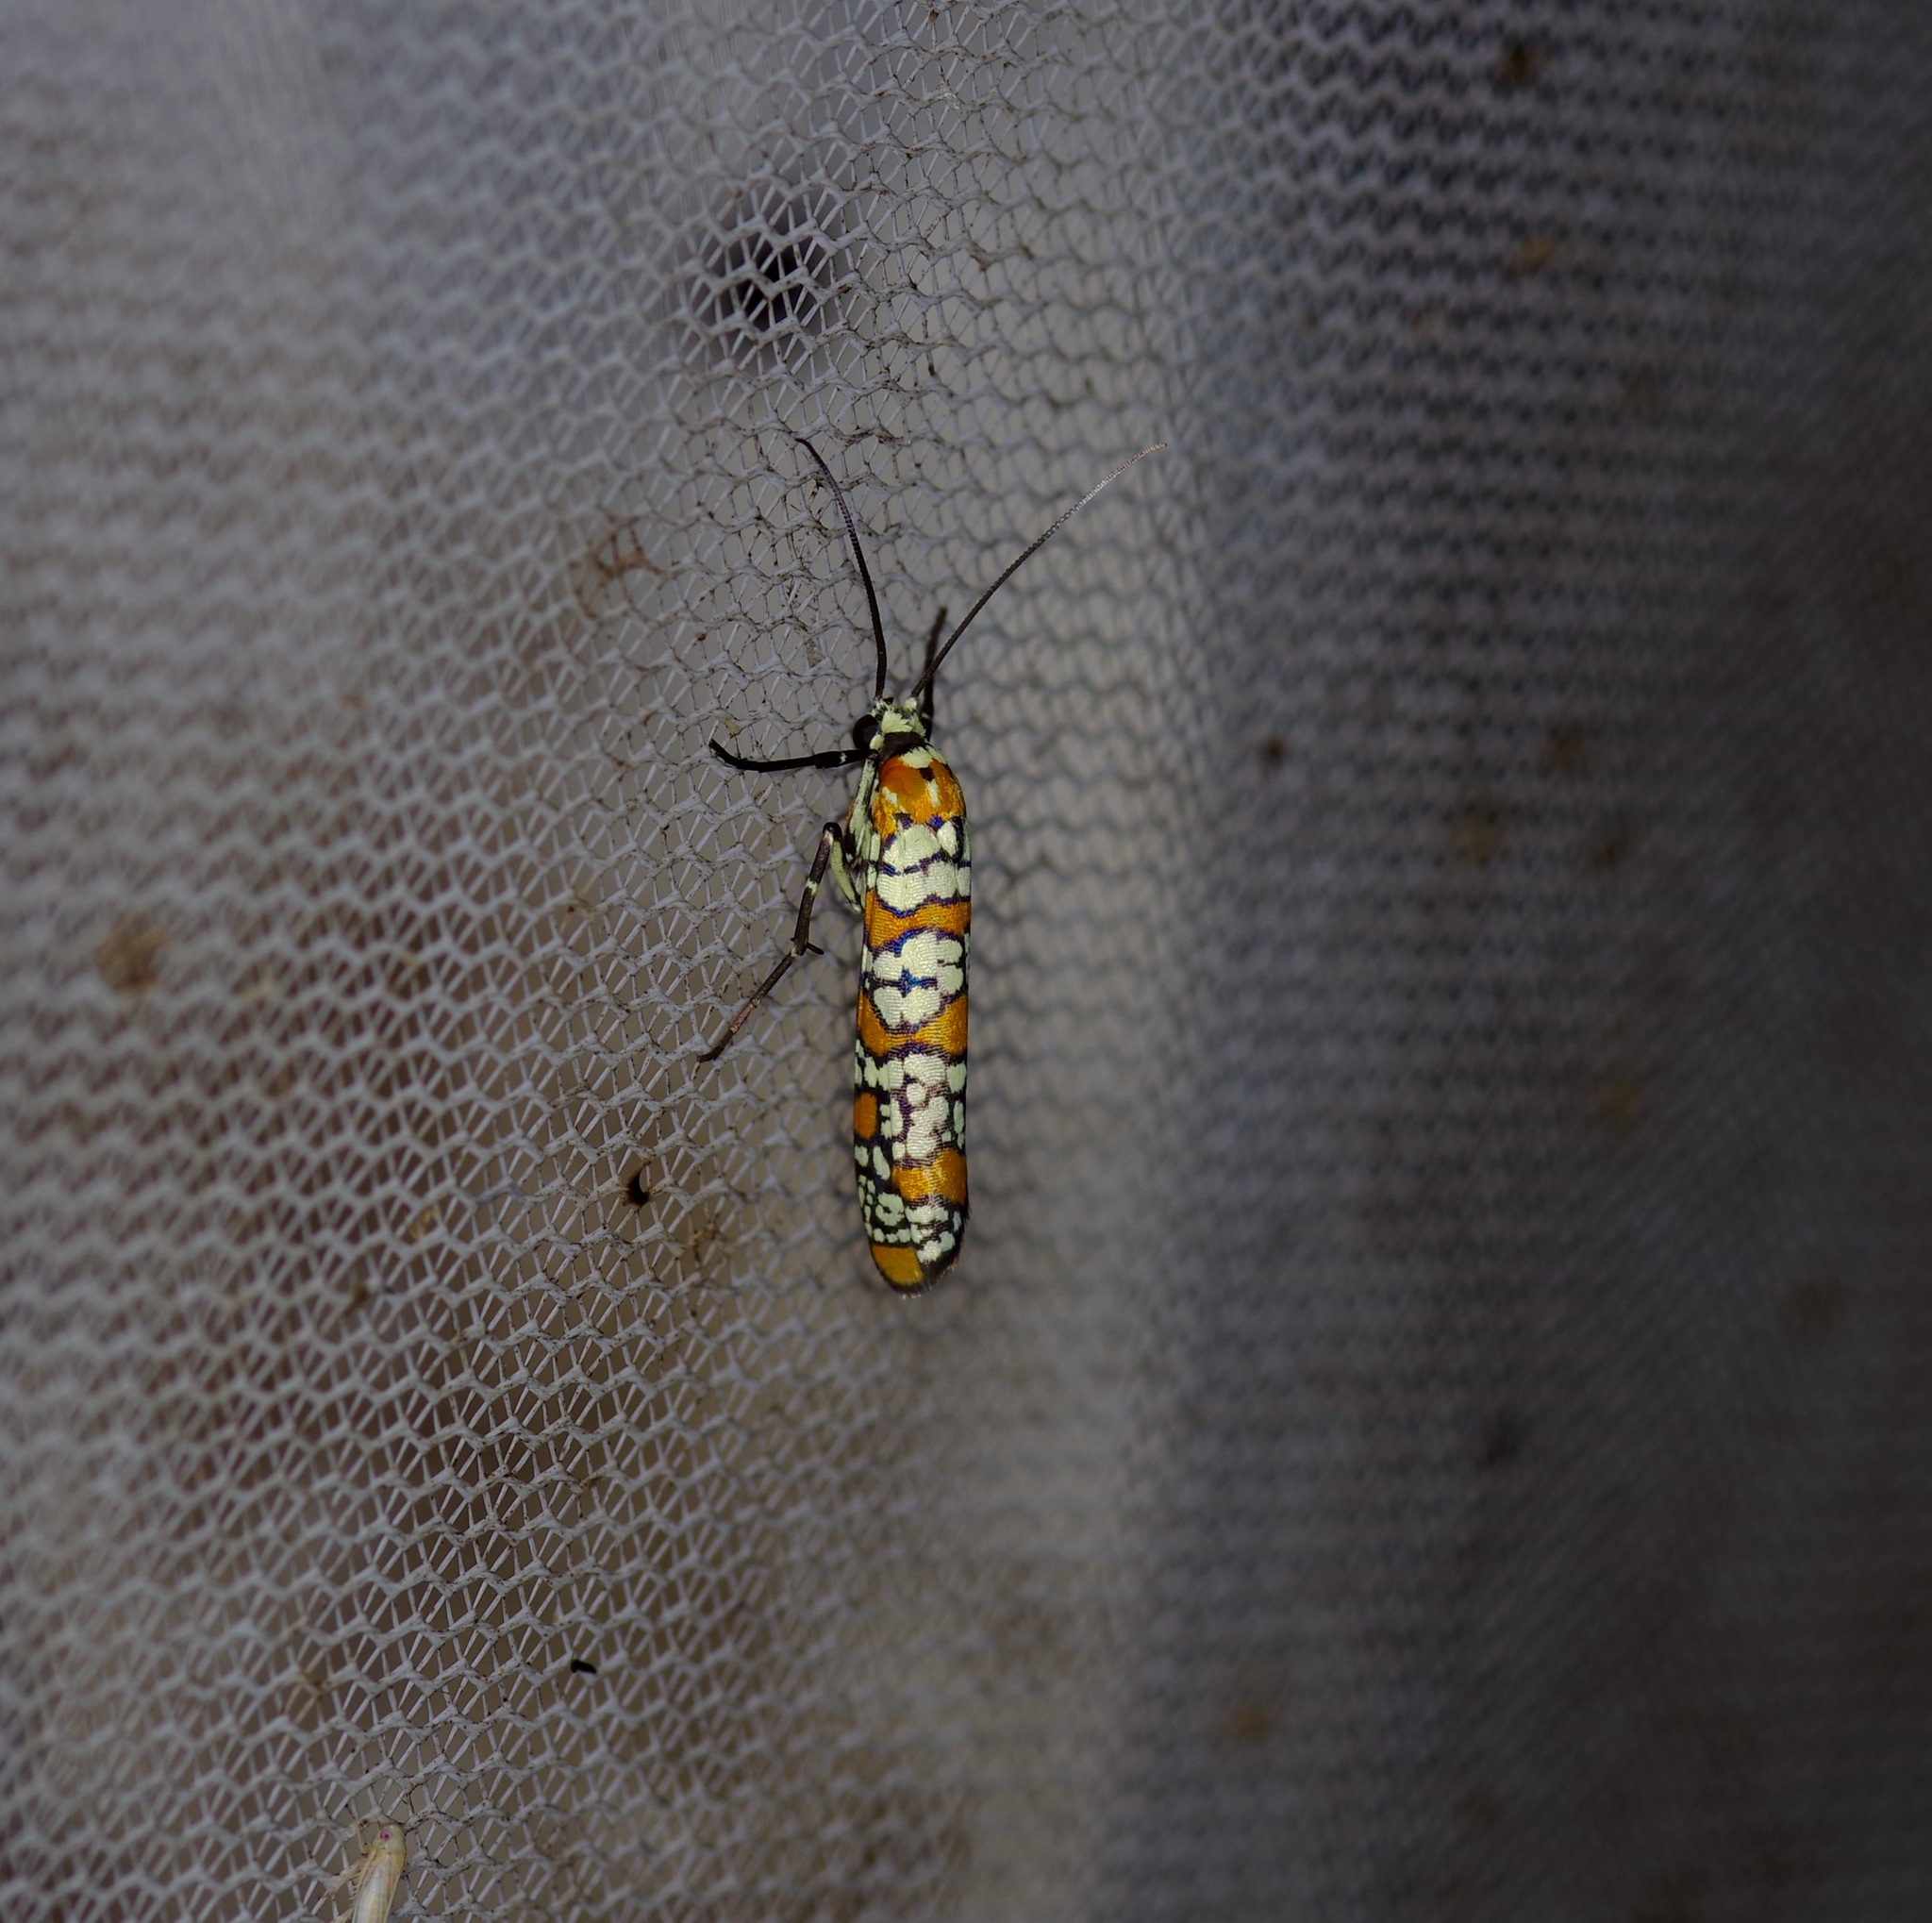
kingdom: Animalia
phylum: Arthropoda
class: Insecta
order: Lepidoptera
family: Attevidae
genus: Atteva
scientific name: Atteva punctella
